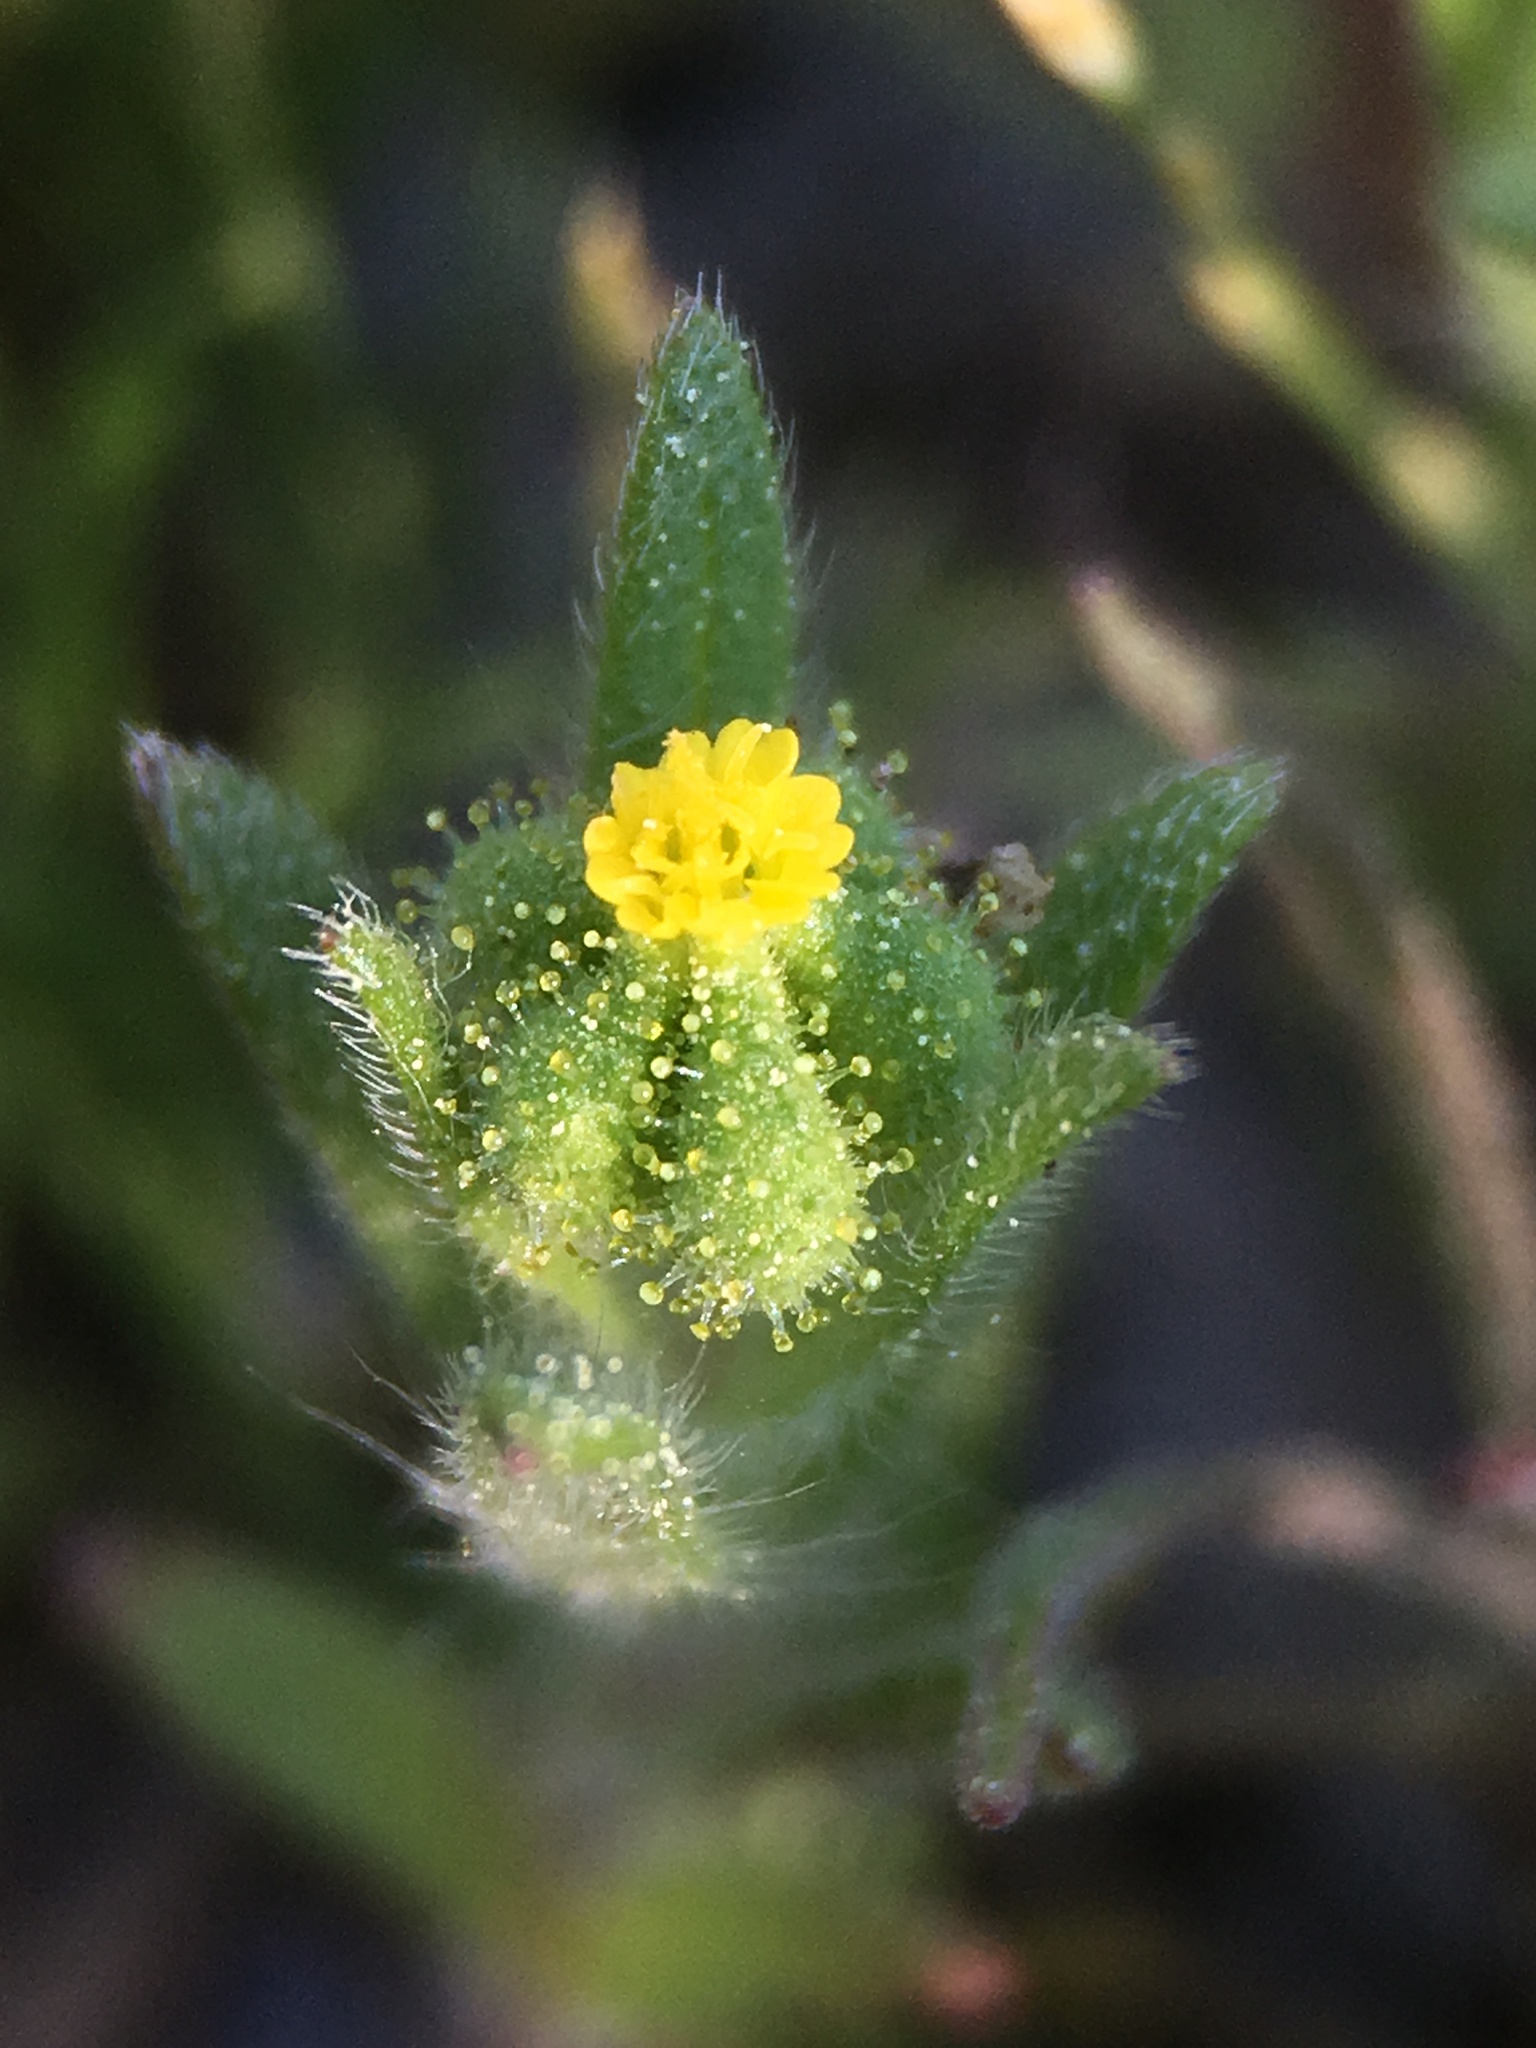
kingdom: Plantae
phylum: Tracheophyta
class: Magnoliopsida
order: Asterales
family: Asteraceae
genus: Madia
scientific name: Madia exigua
